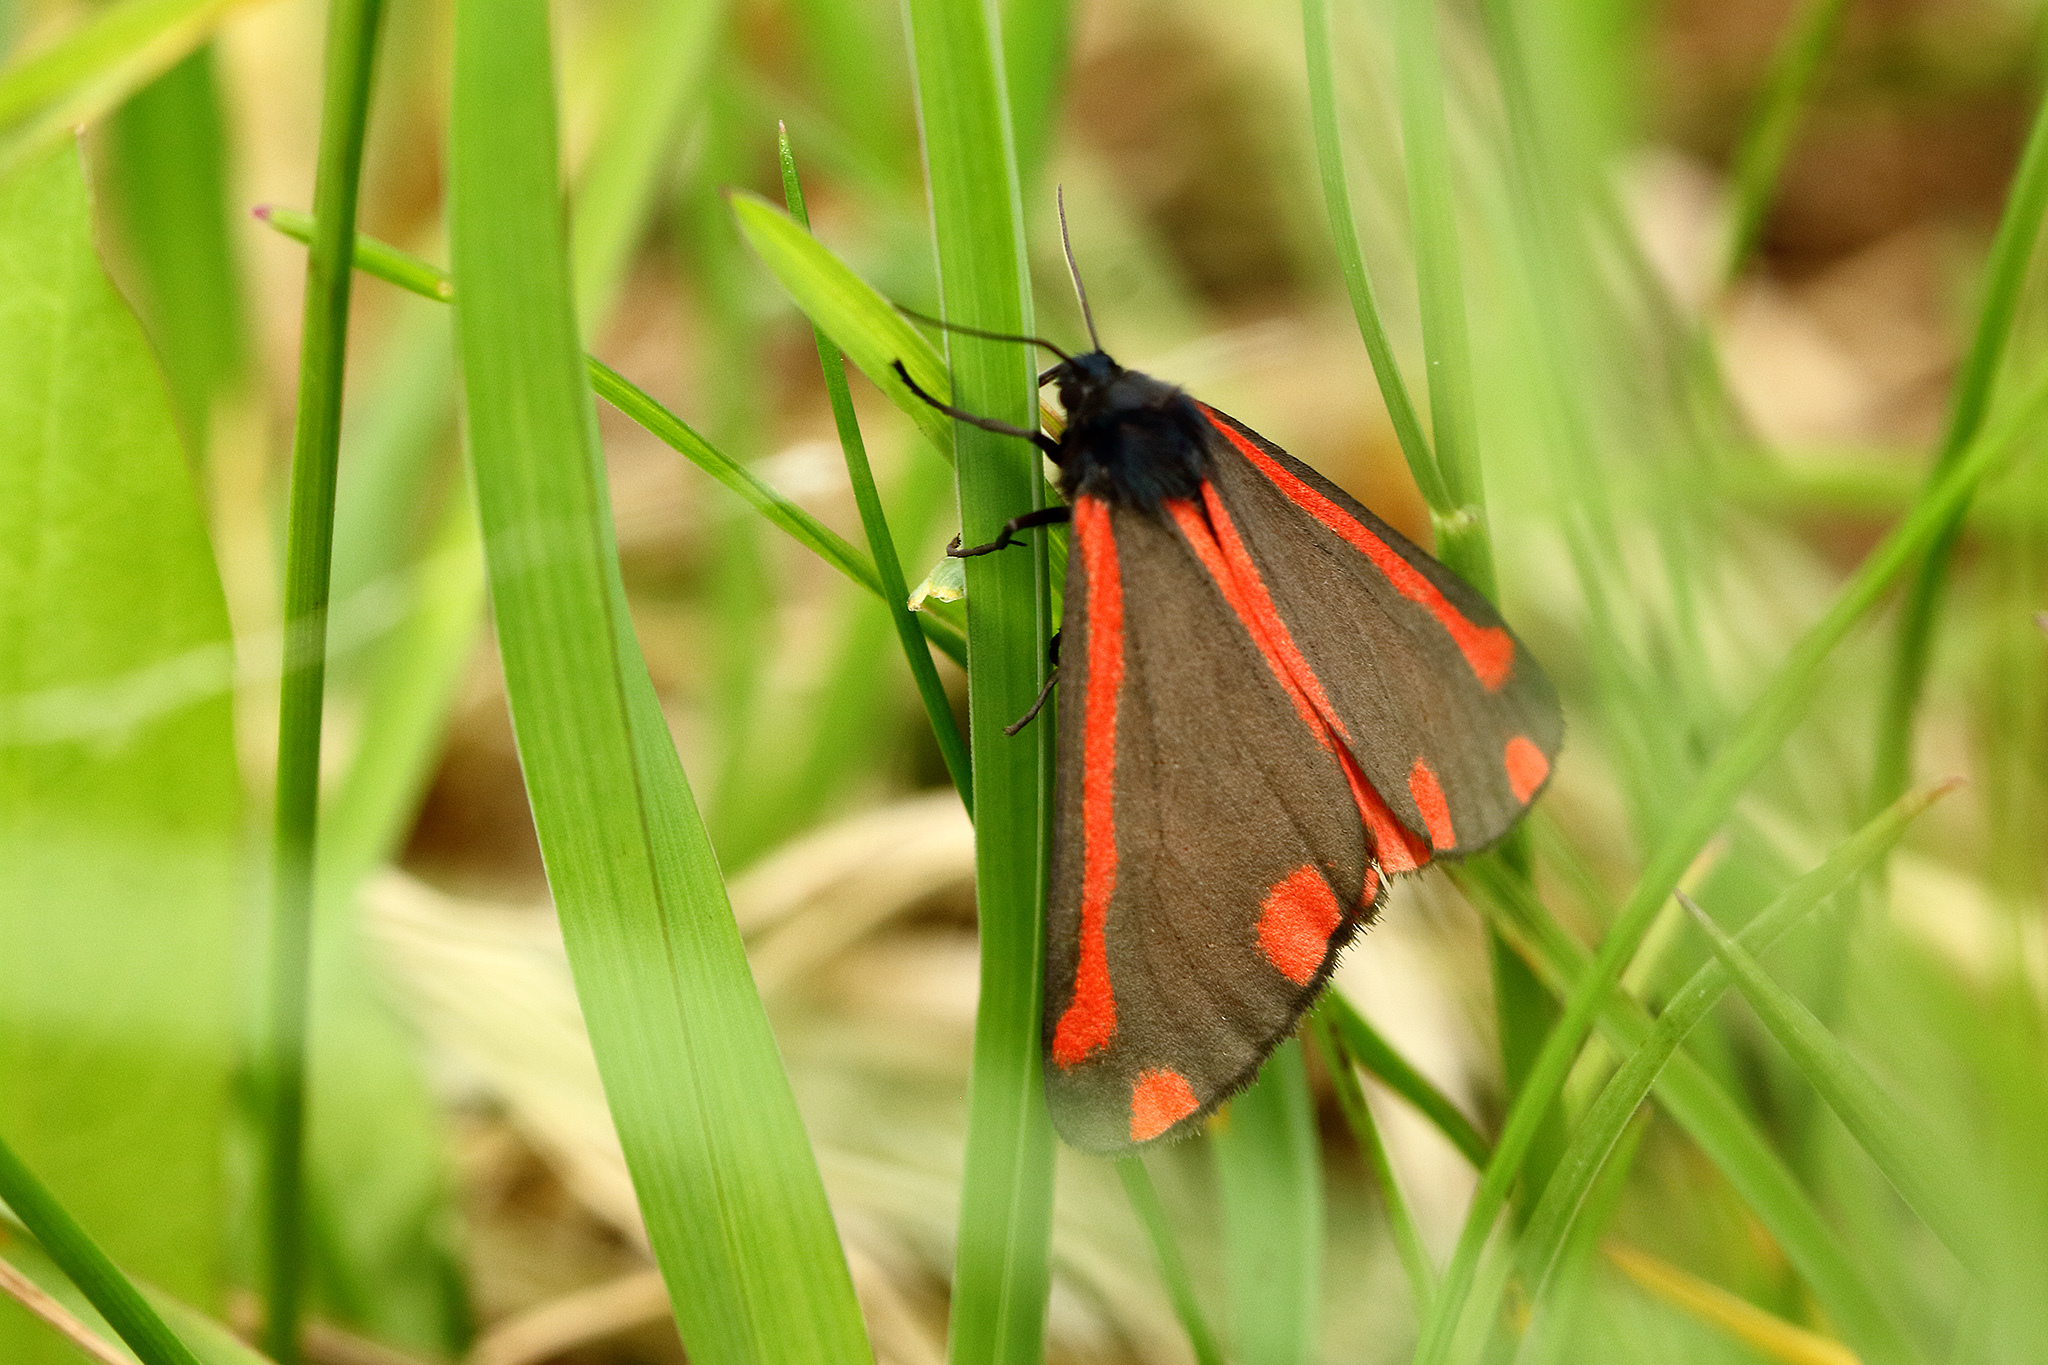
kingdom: Animalia
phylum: Arthropoda
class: Insecta
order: Lepidoptera
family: Erebidae
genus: Tyria
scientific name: Tyria jacobaeae
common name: Cinnabar
